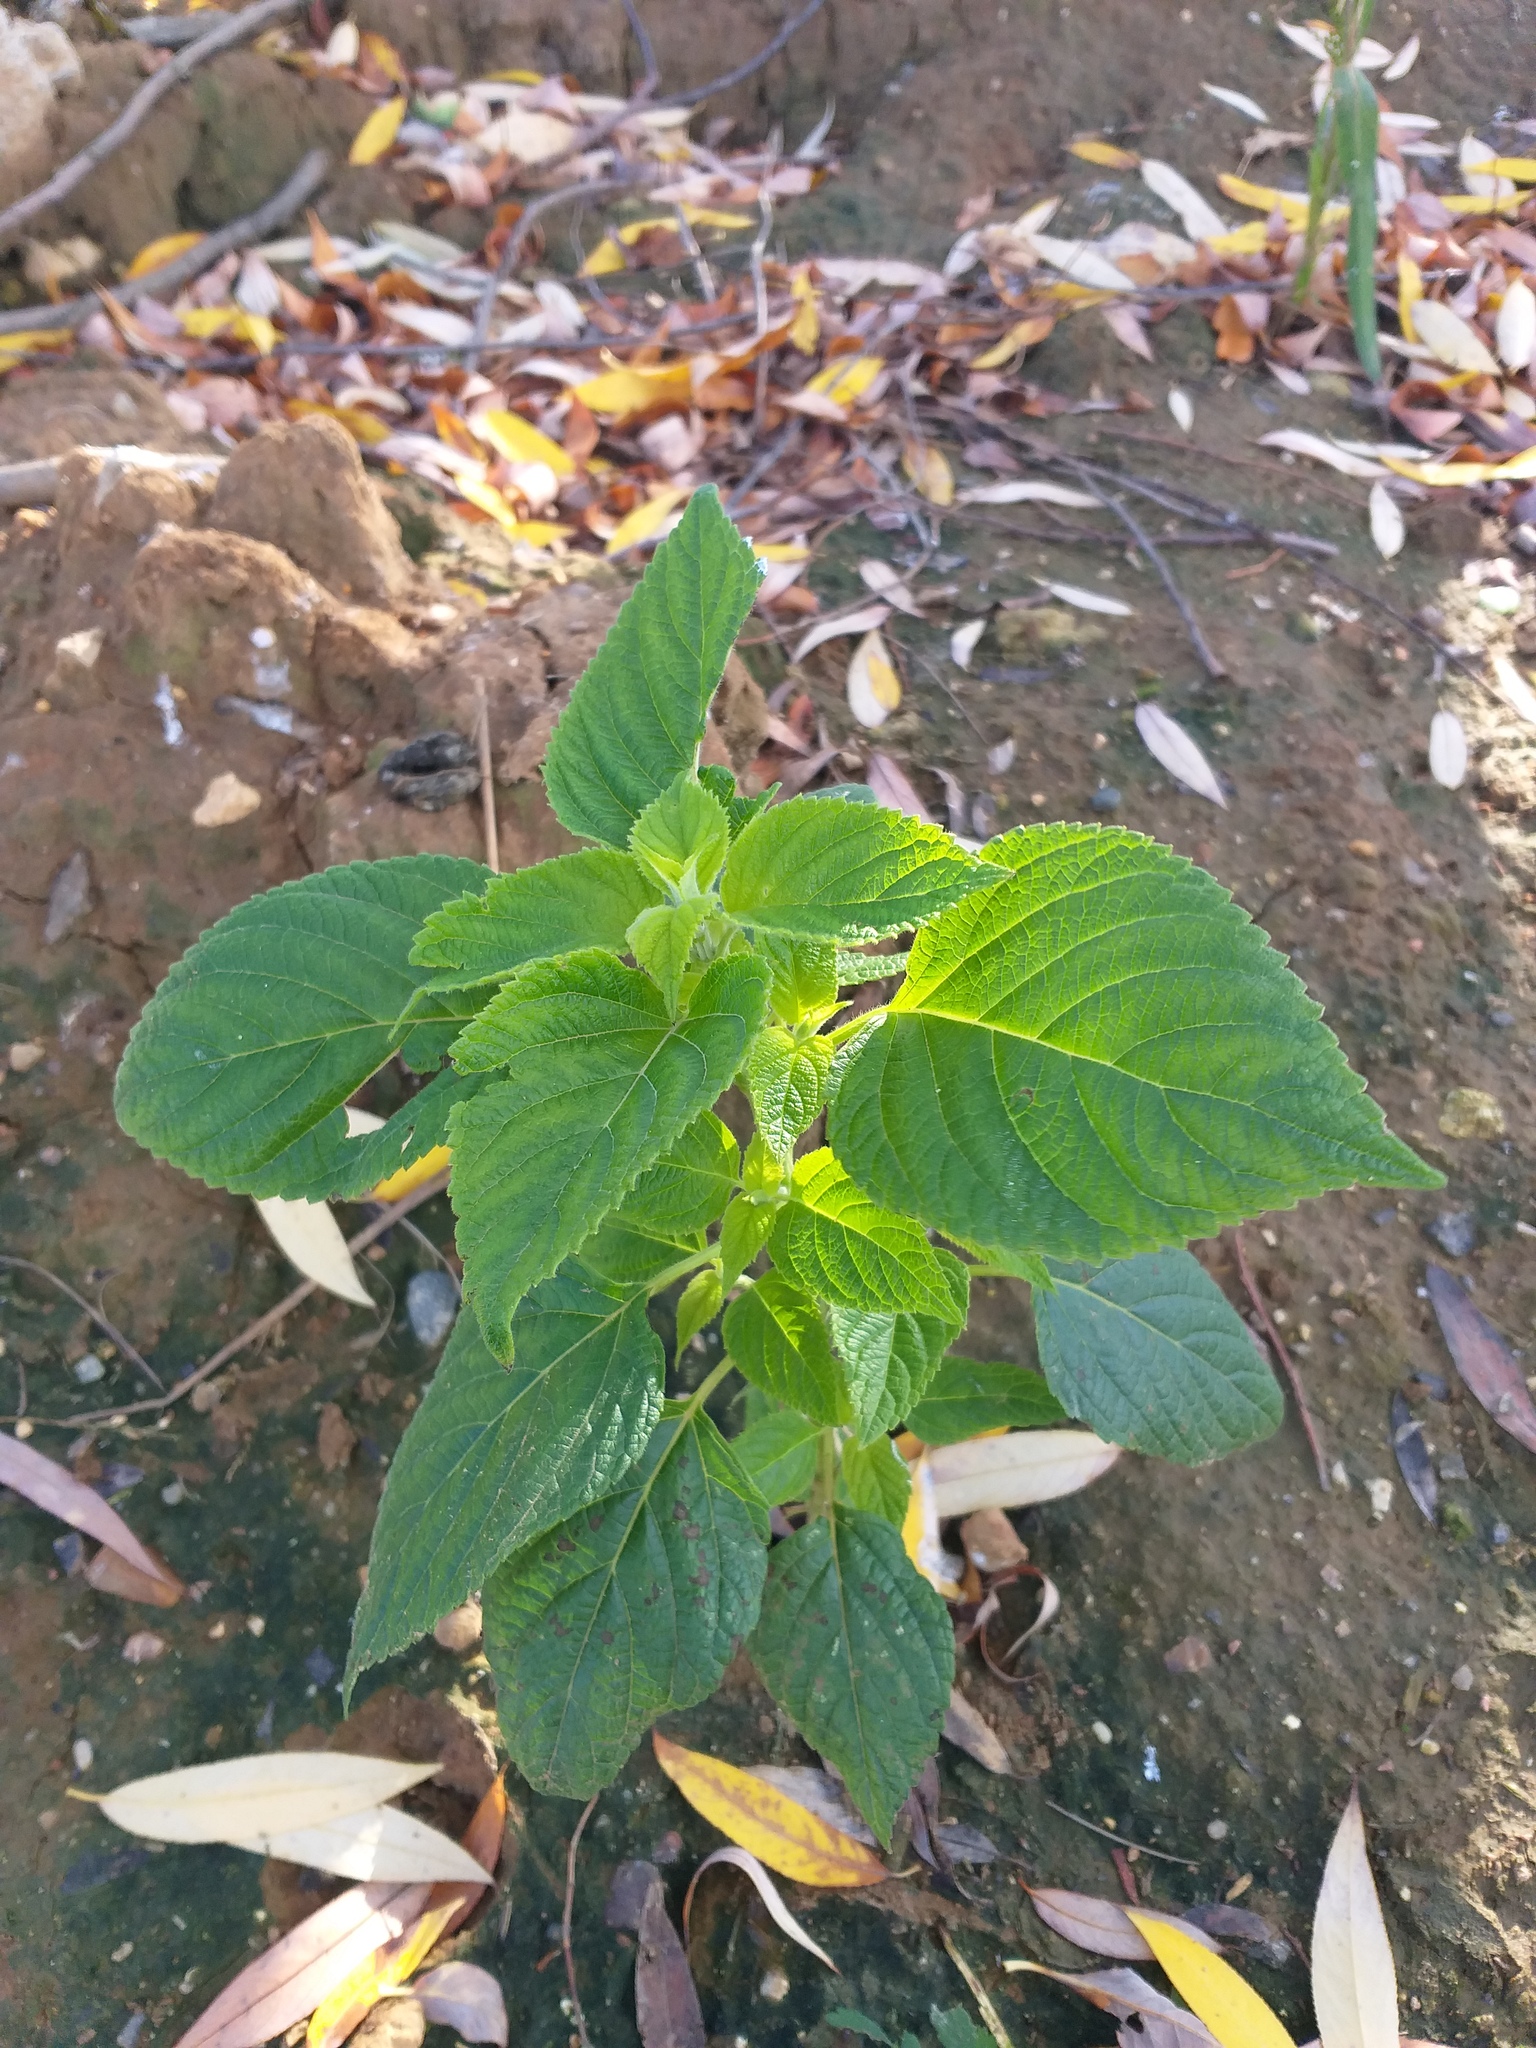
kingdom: Plantae
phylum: Tracheophyta
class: Magnoliopsida
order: Lamiales
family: Lamiaceae
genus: Salvia
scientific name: Salvia hispanica
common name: Chia
